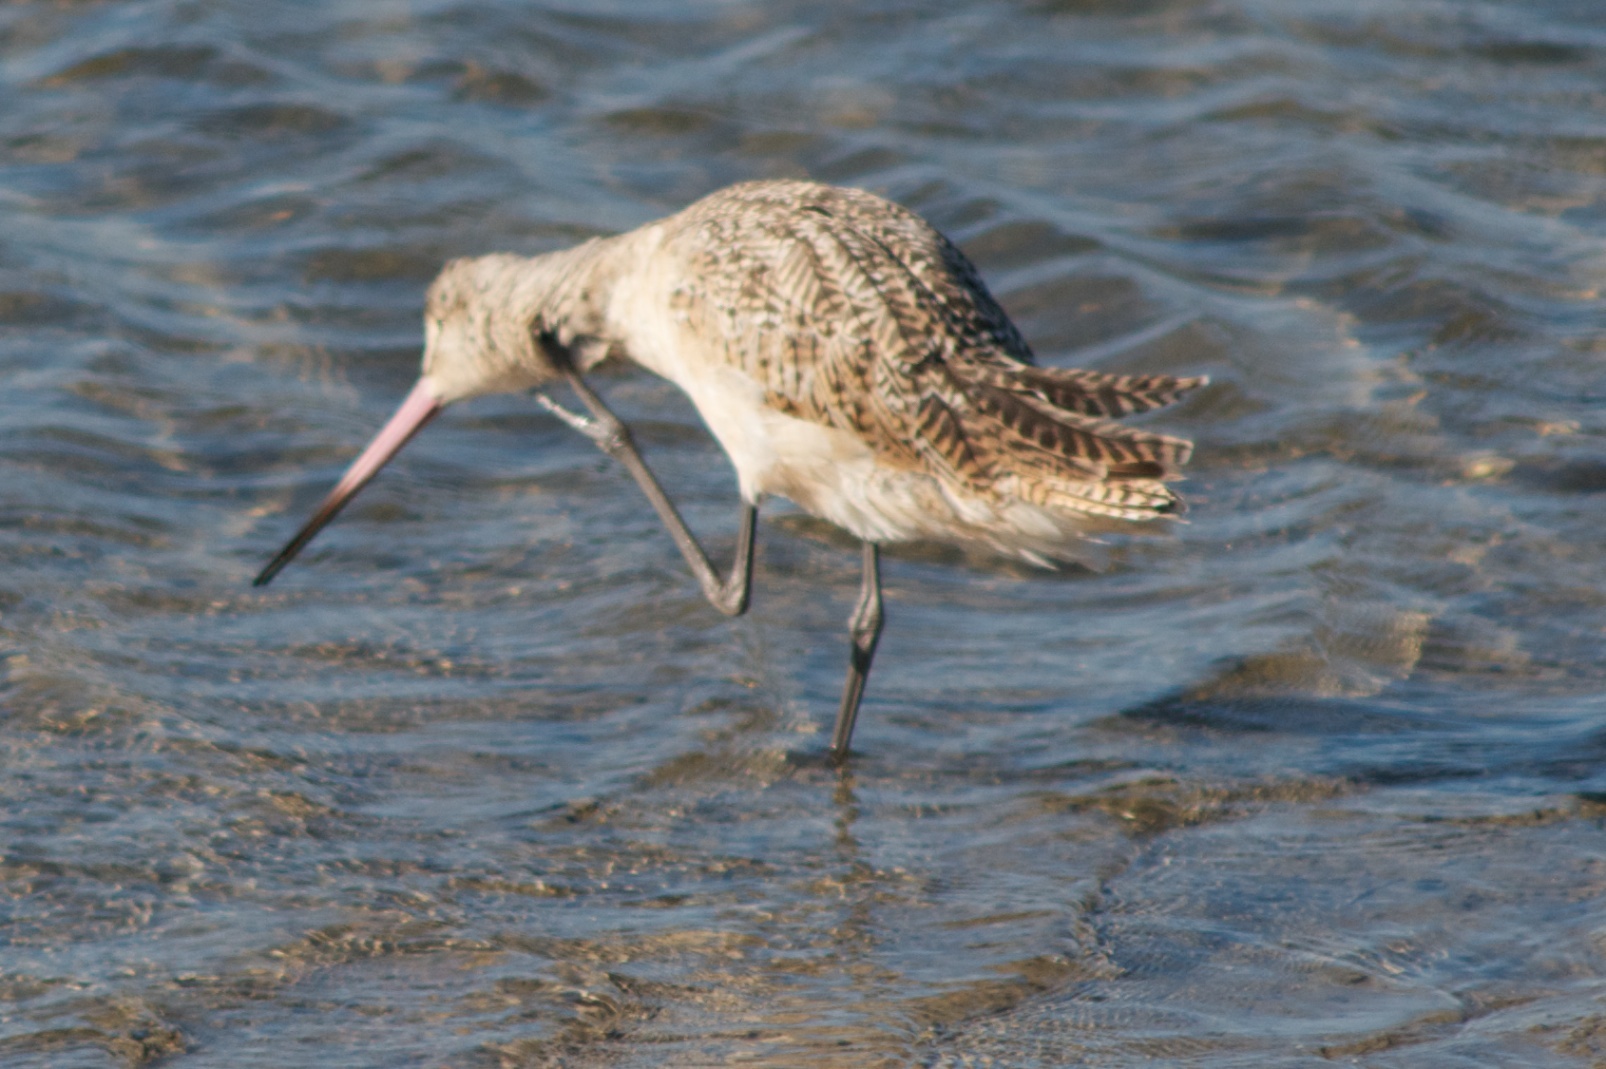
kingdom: Animalia
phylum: Chordata
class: Aves
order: Charadriiformes
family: Scolopacidae
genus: Limosa
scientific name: Limosa fedoa
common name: Marbled godwit
